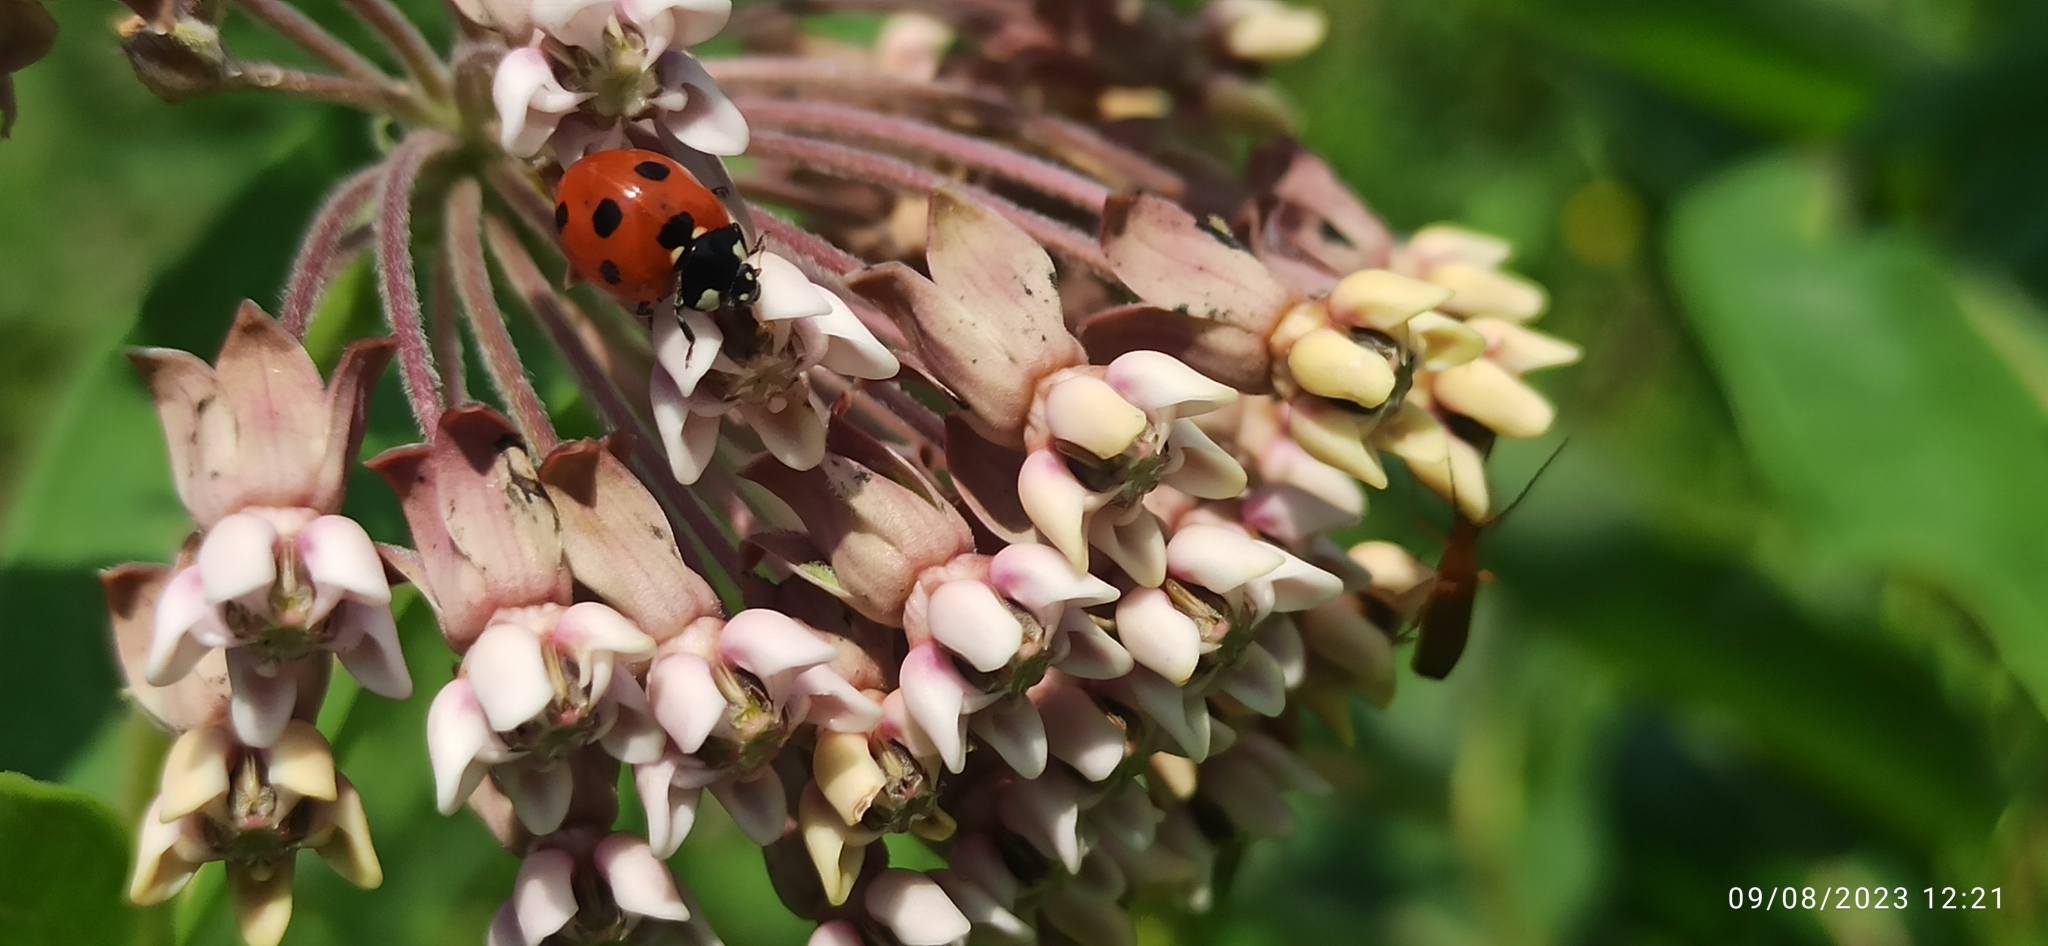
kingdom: Animalia
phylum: Arthropoda
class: Insecta
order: Coleoptera
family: Coccinellidae
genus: Coccinella
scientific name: Coccinella septempunctata
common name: Sevenspotted lady beetle
